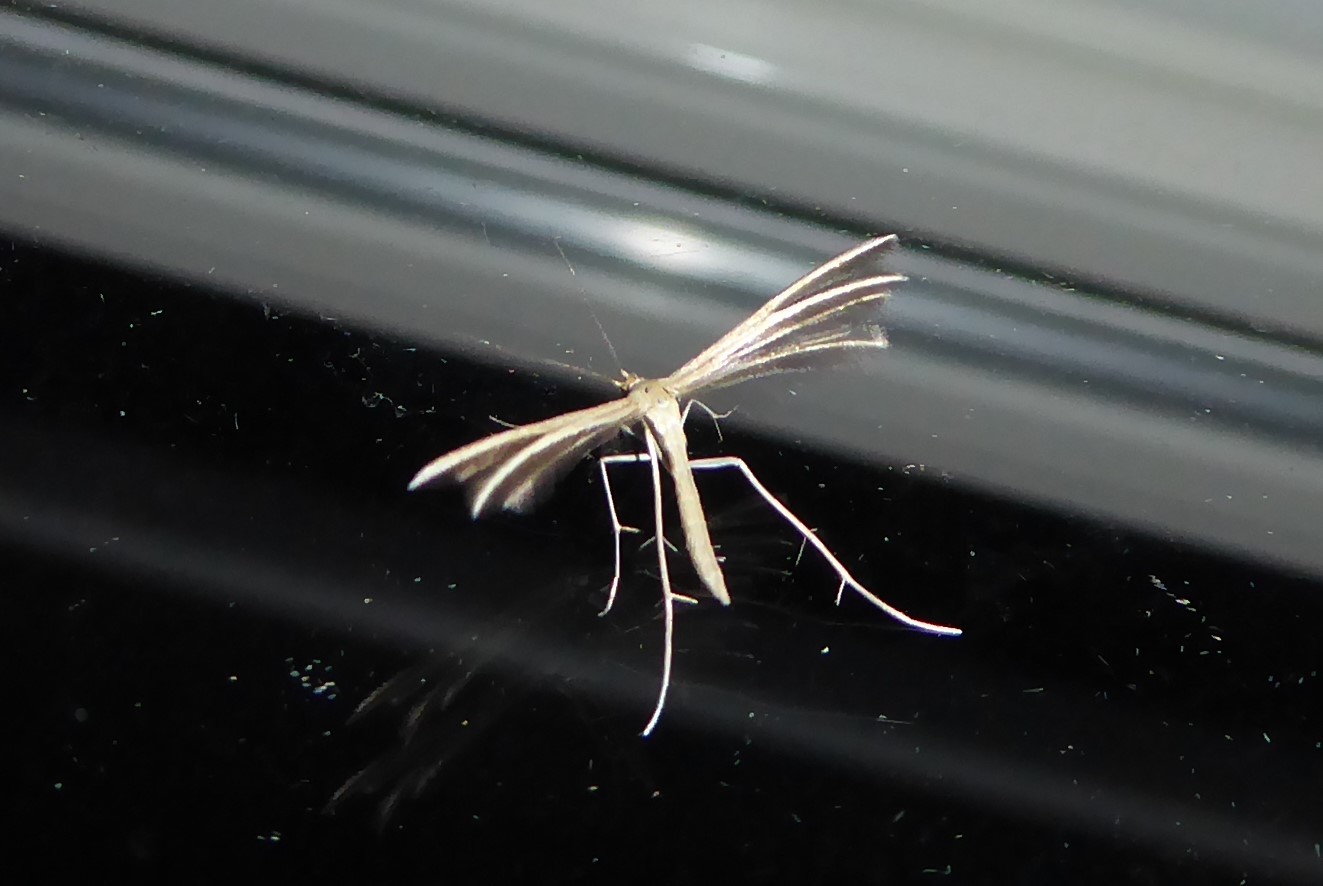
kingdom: Animalia
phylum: Arthropoda
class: Insecta
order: Lepidoptera
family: Pterophoridae
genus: Pterophorus
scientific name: Pterophorus innotatalis
